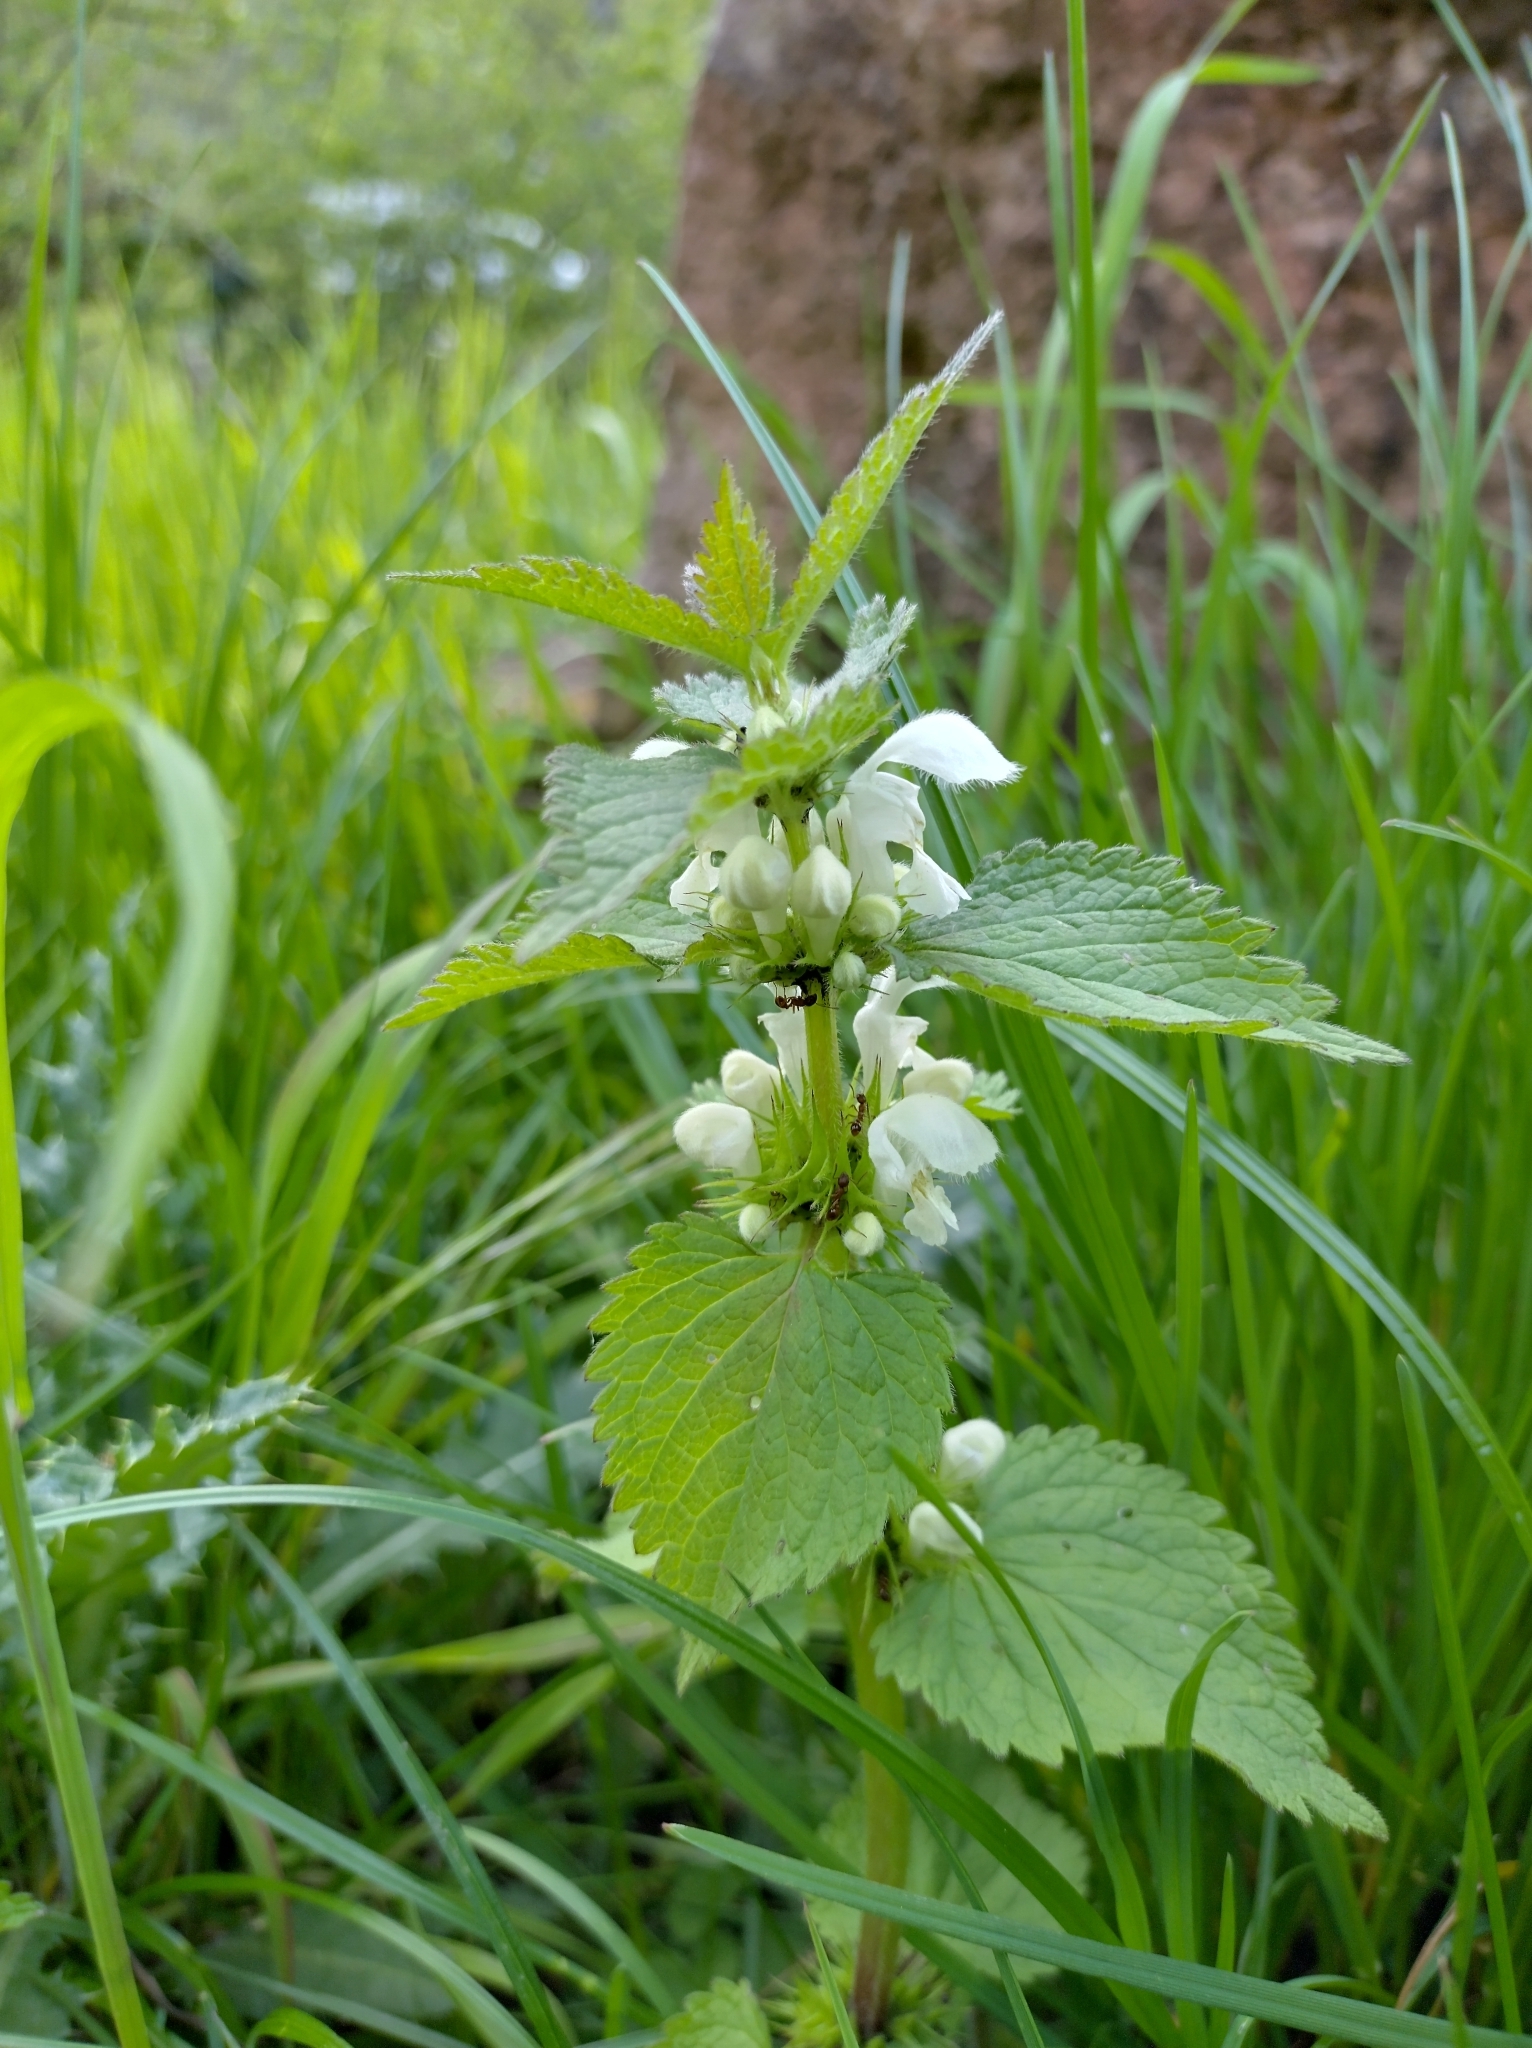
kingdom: Plantae
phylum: Tracheophyta
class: Magnoliopsida
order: Lamiales
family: Lamiaceae
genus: Lamium
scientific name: Lamium album
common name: White dead-nettle
